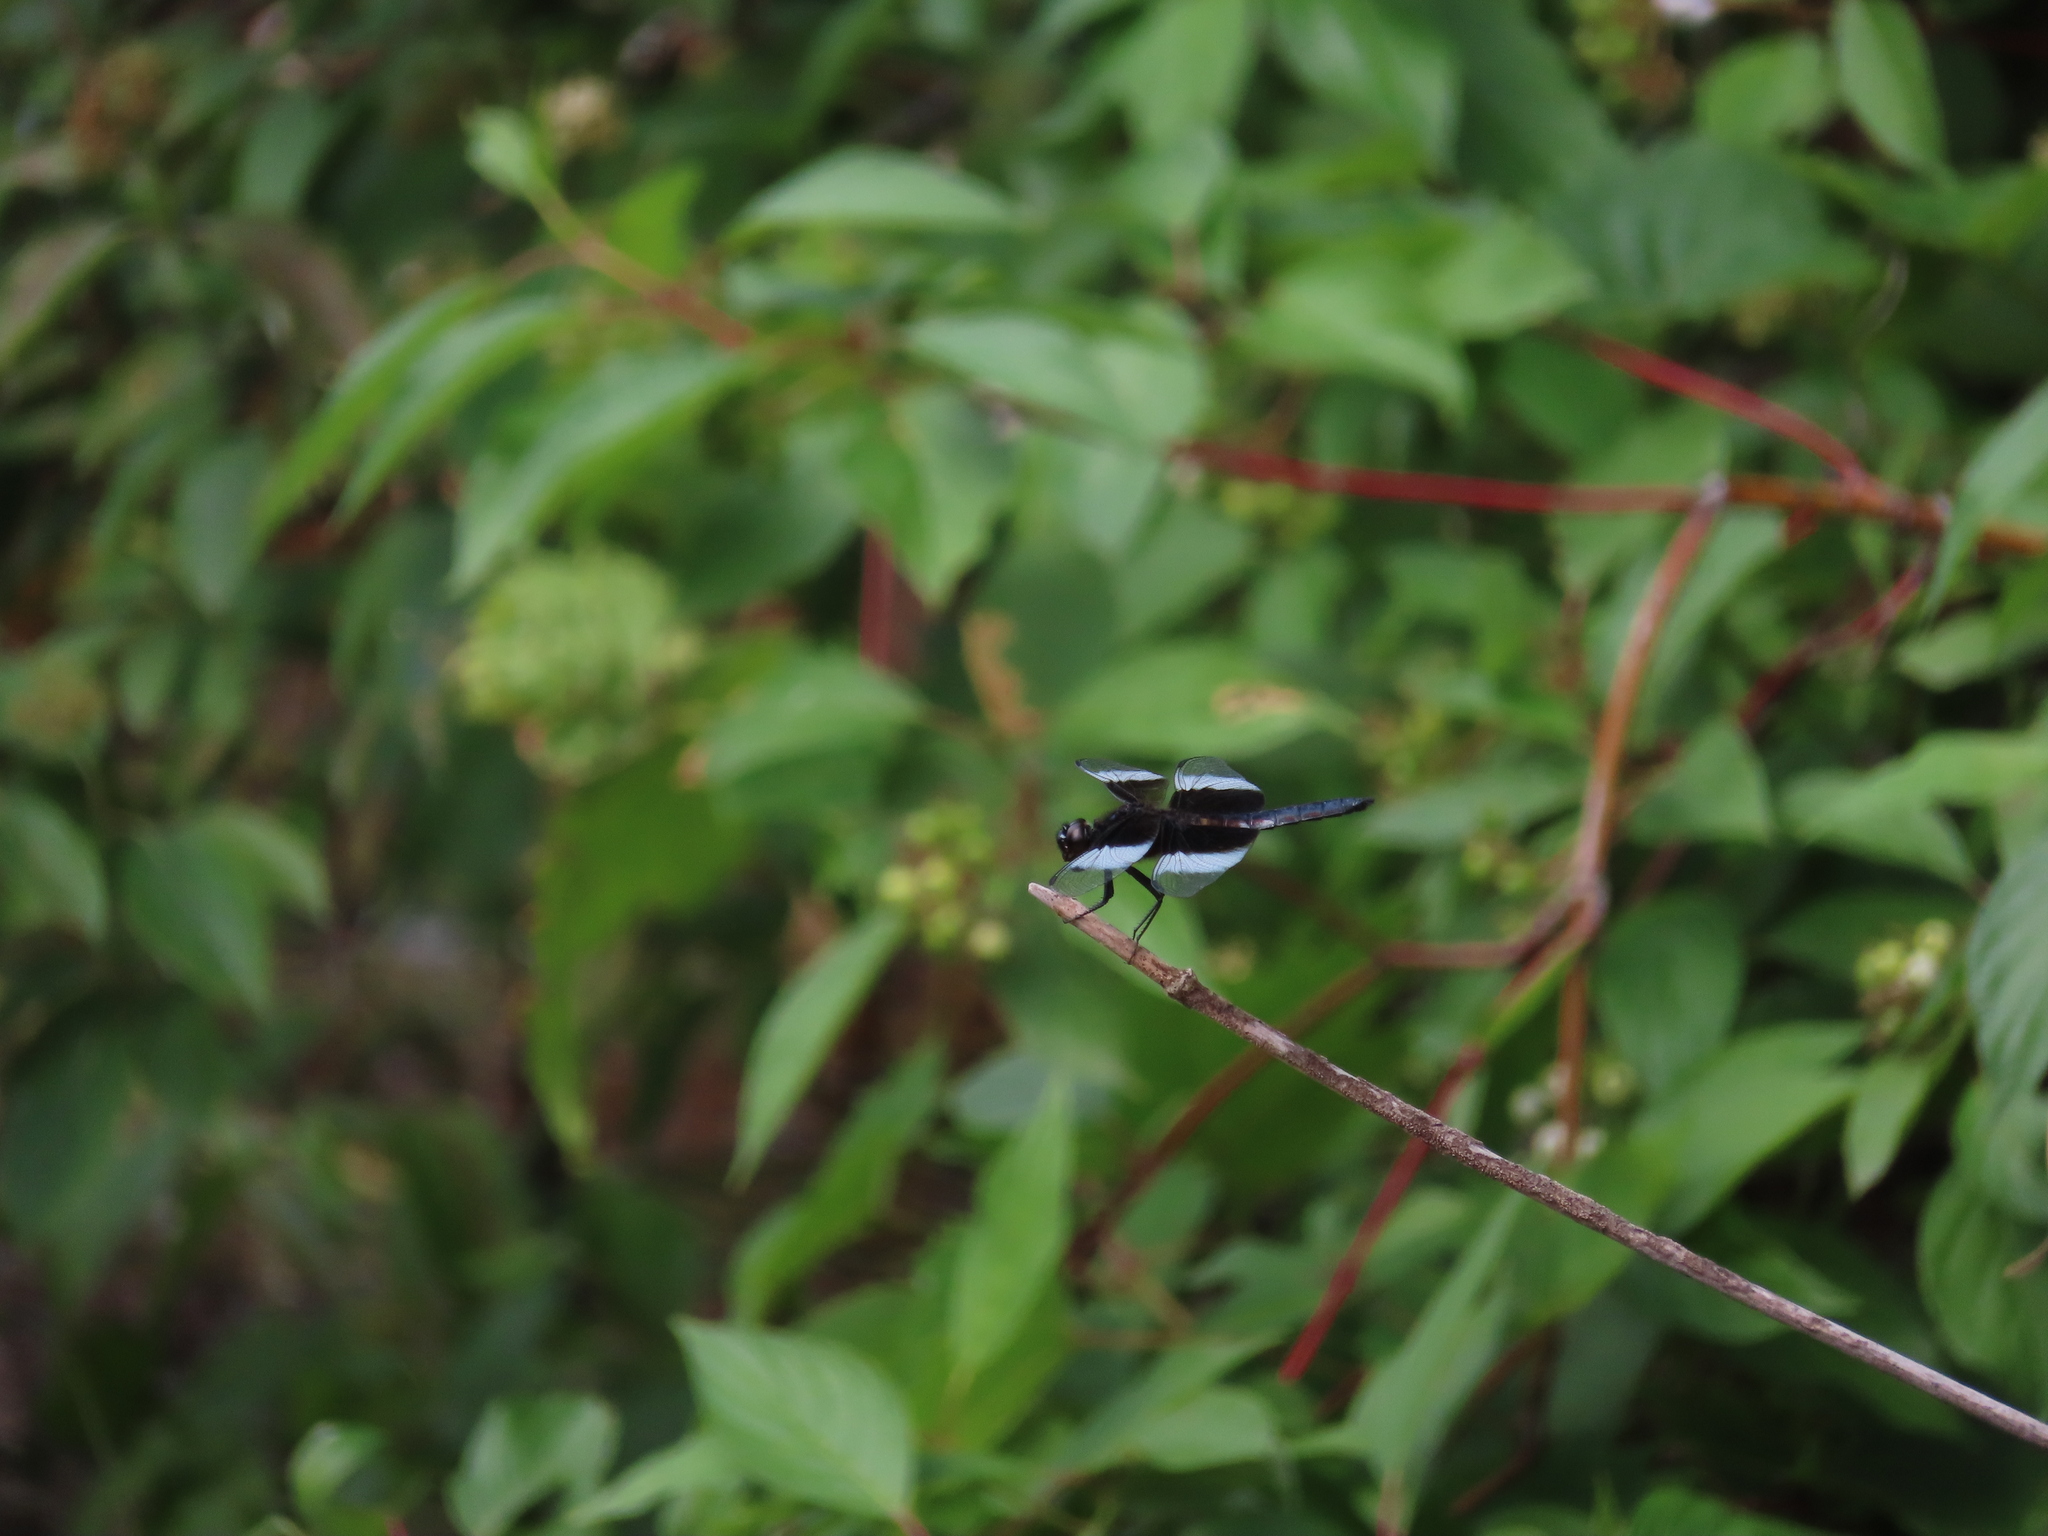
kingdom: Animalia
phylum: Arthropoda
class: Insecta
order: Odonata
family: Libellulidae
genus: Libellula
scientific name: Libellula luctuosa
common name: Widow skimmer
